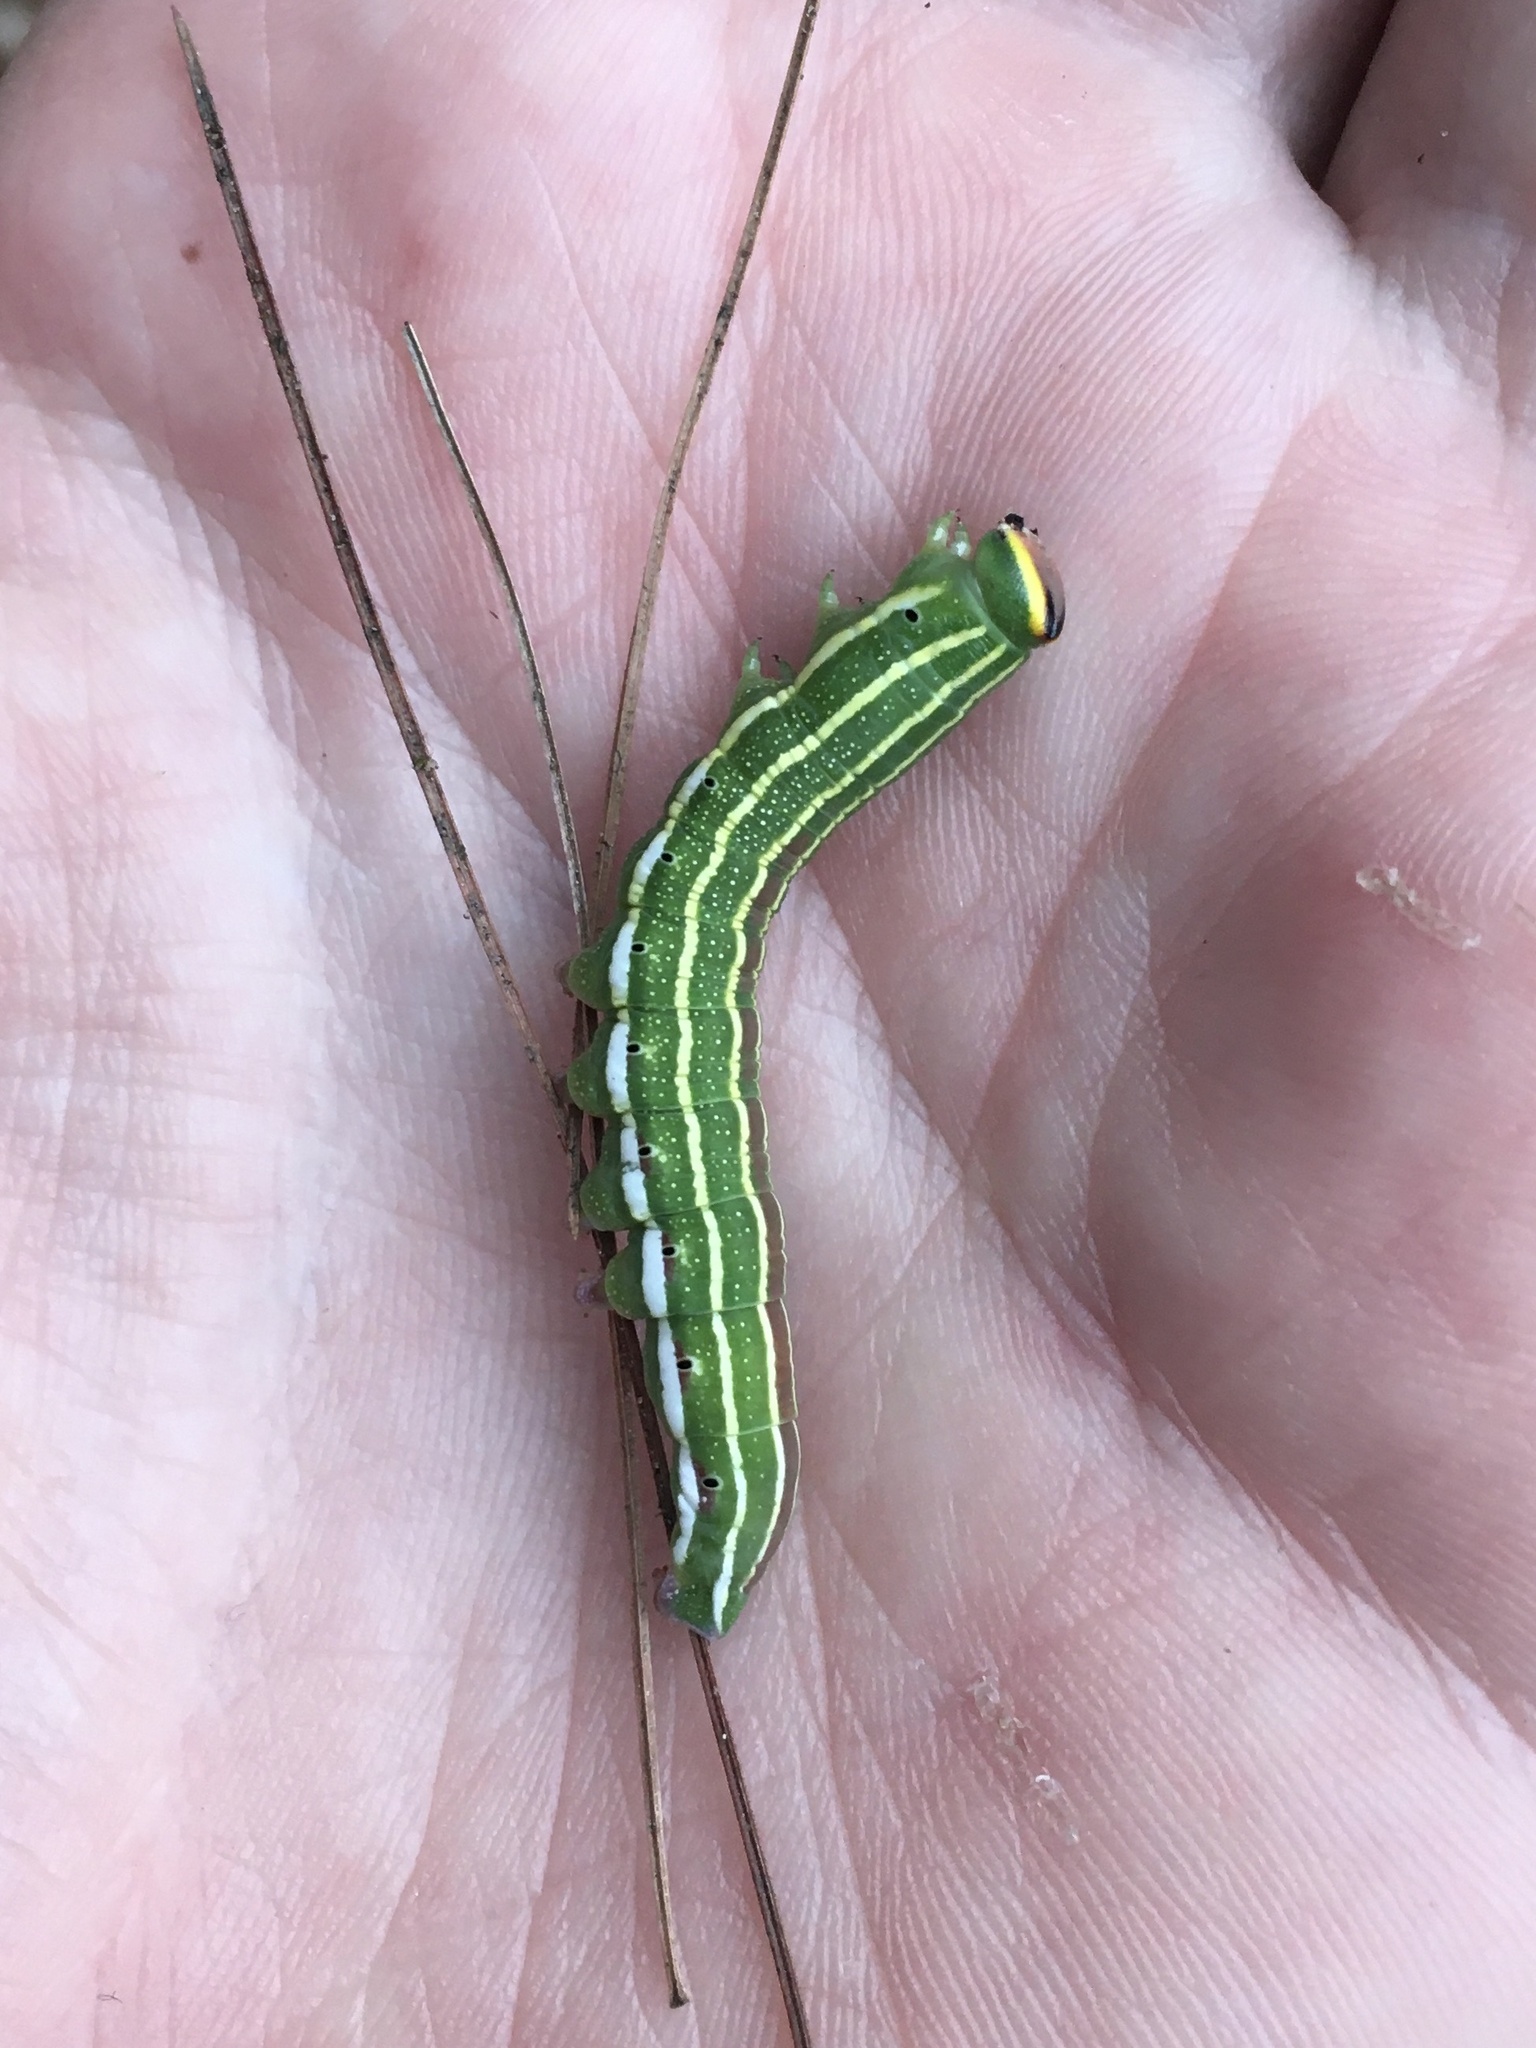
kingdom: Animalia
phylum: Arthropoda
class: Insecta
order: Lepidoptera
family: Sphingidae
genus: Lapara
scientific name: Lapara bombycoides
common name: Northern pine sphinx
